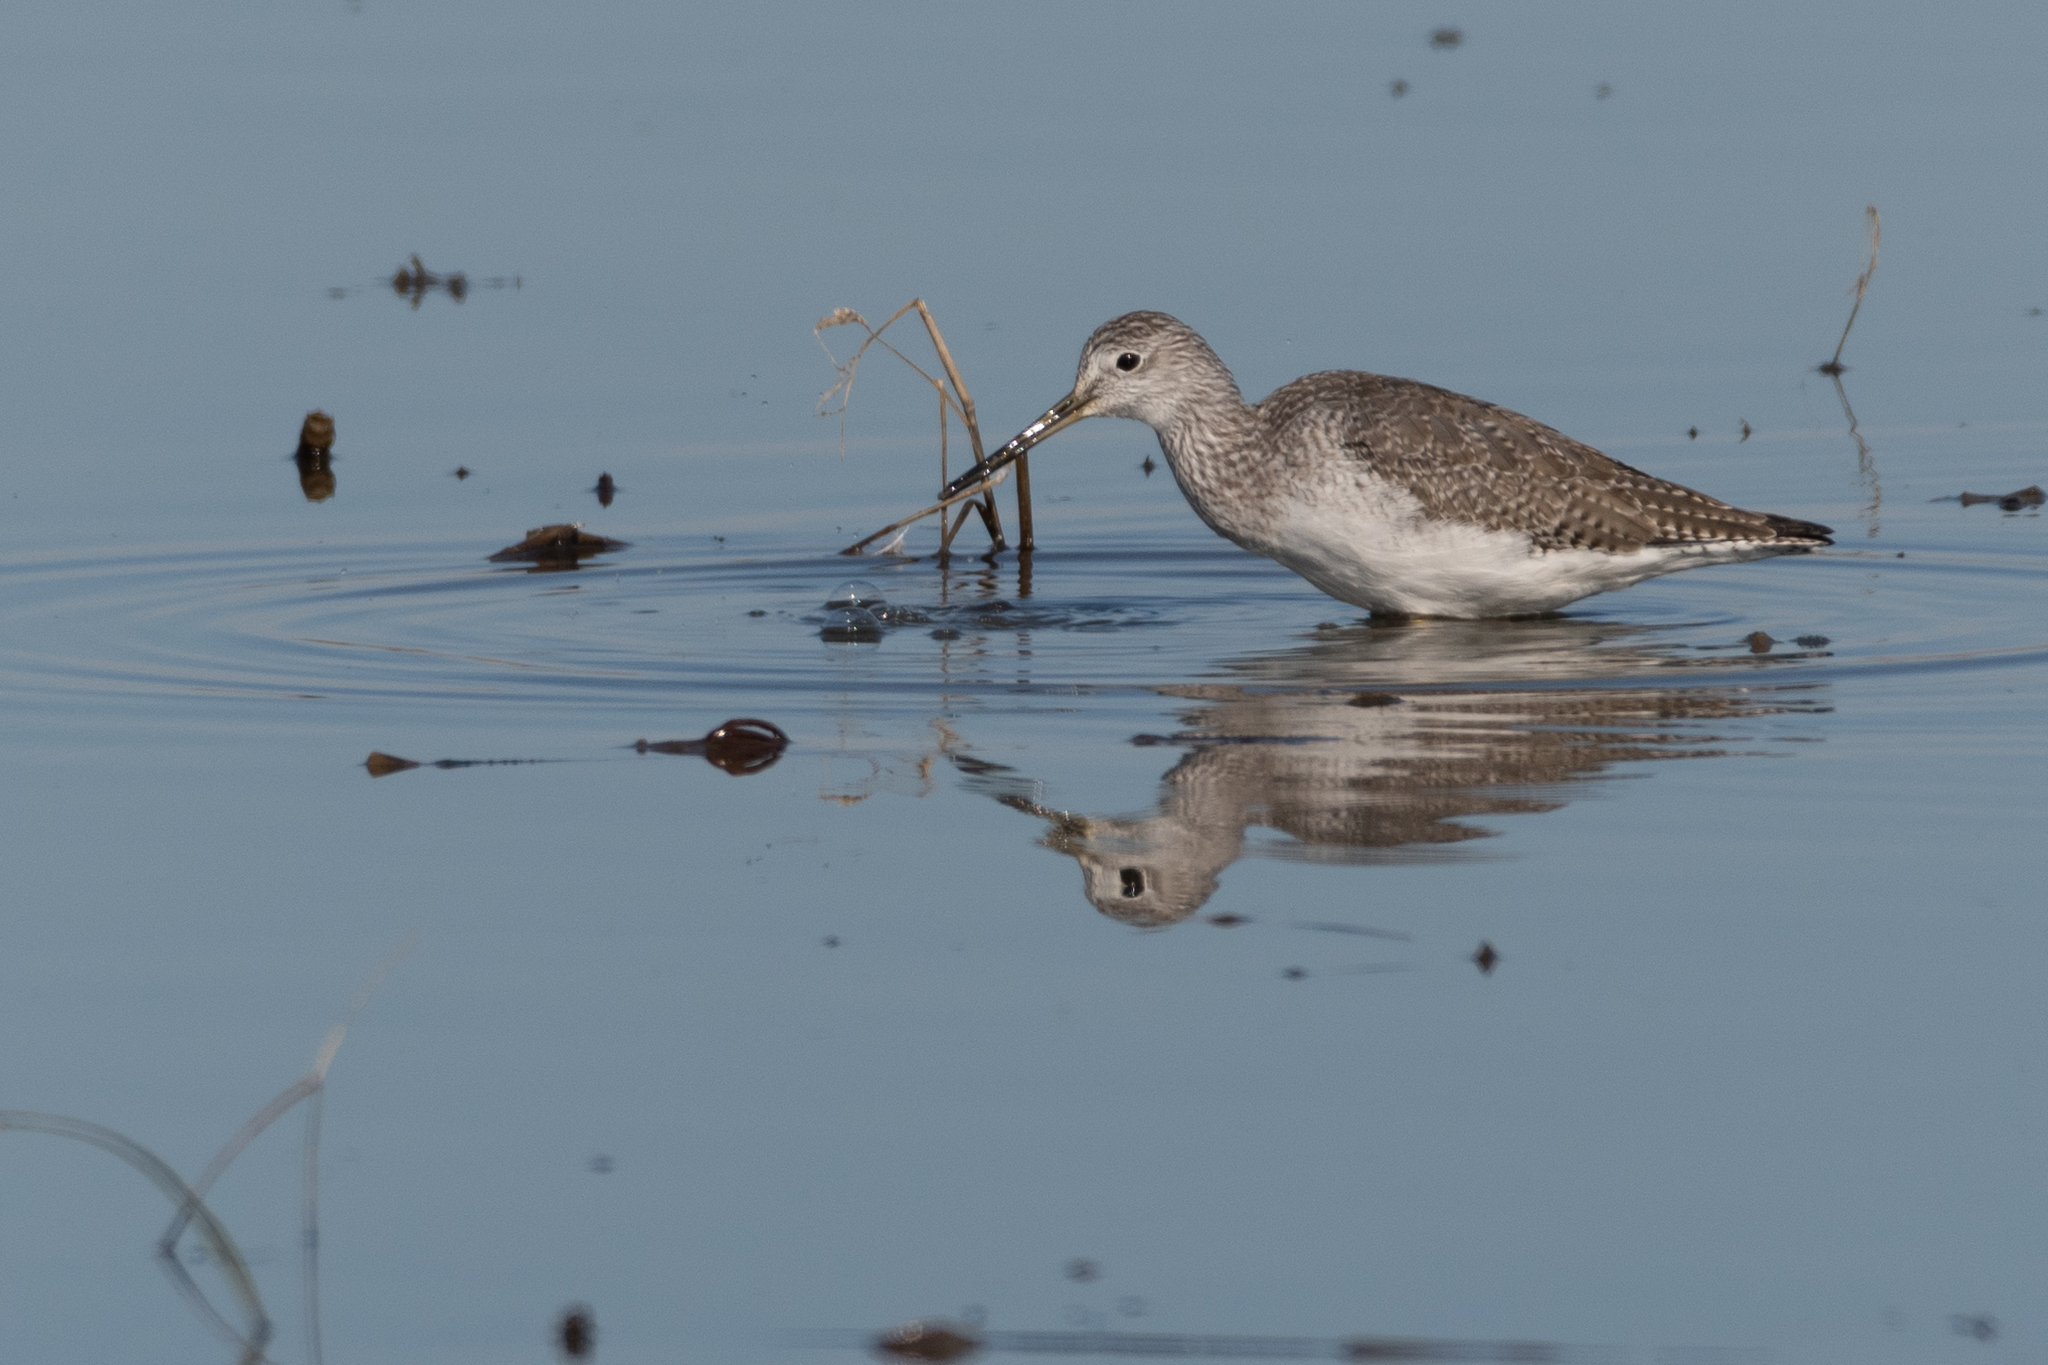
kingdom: Animalia
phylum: Chordata
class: Aves
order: Charadriiformes
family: Scolopacidae
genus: Tringa
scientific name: Tringa melanoleuca
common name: Greater yellowlegs
